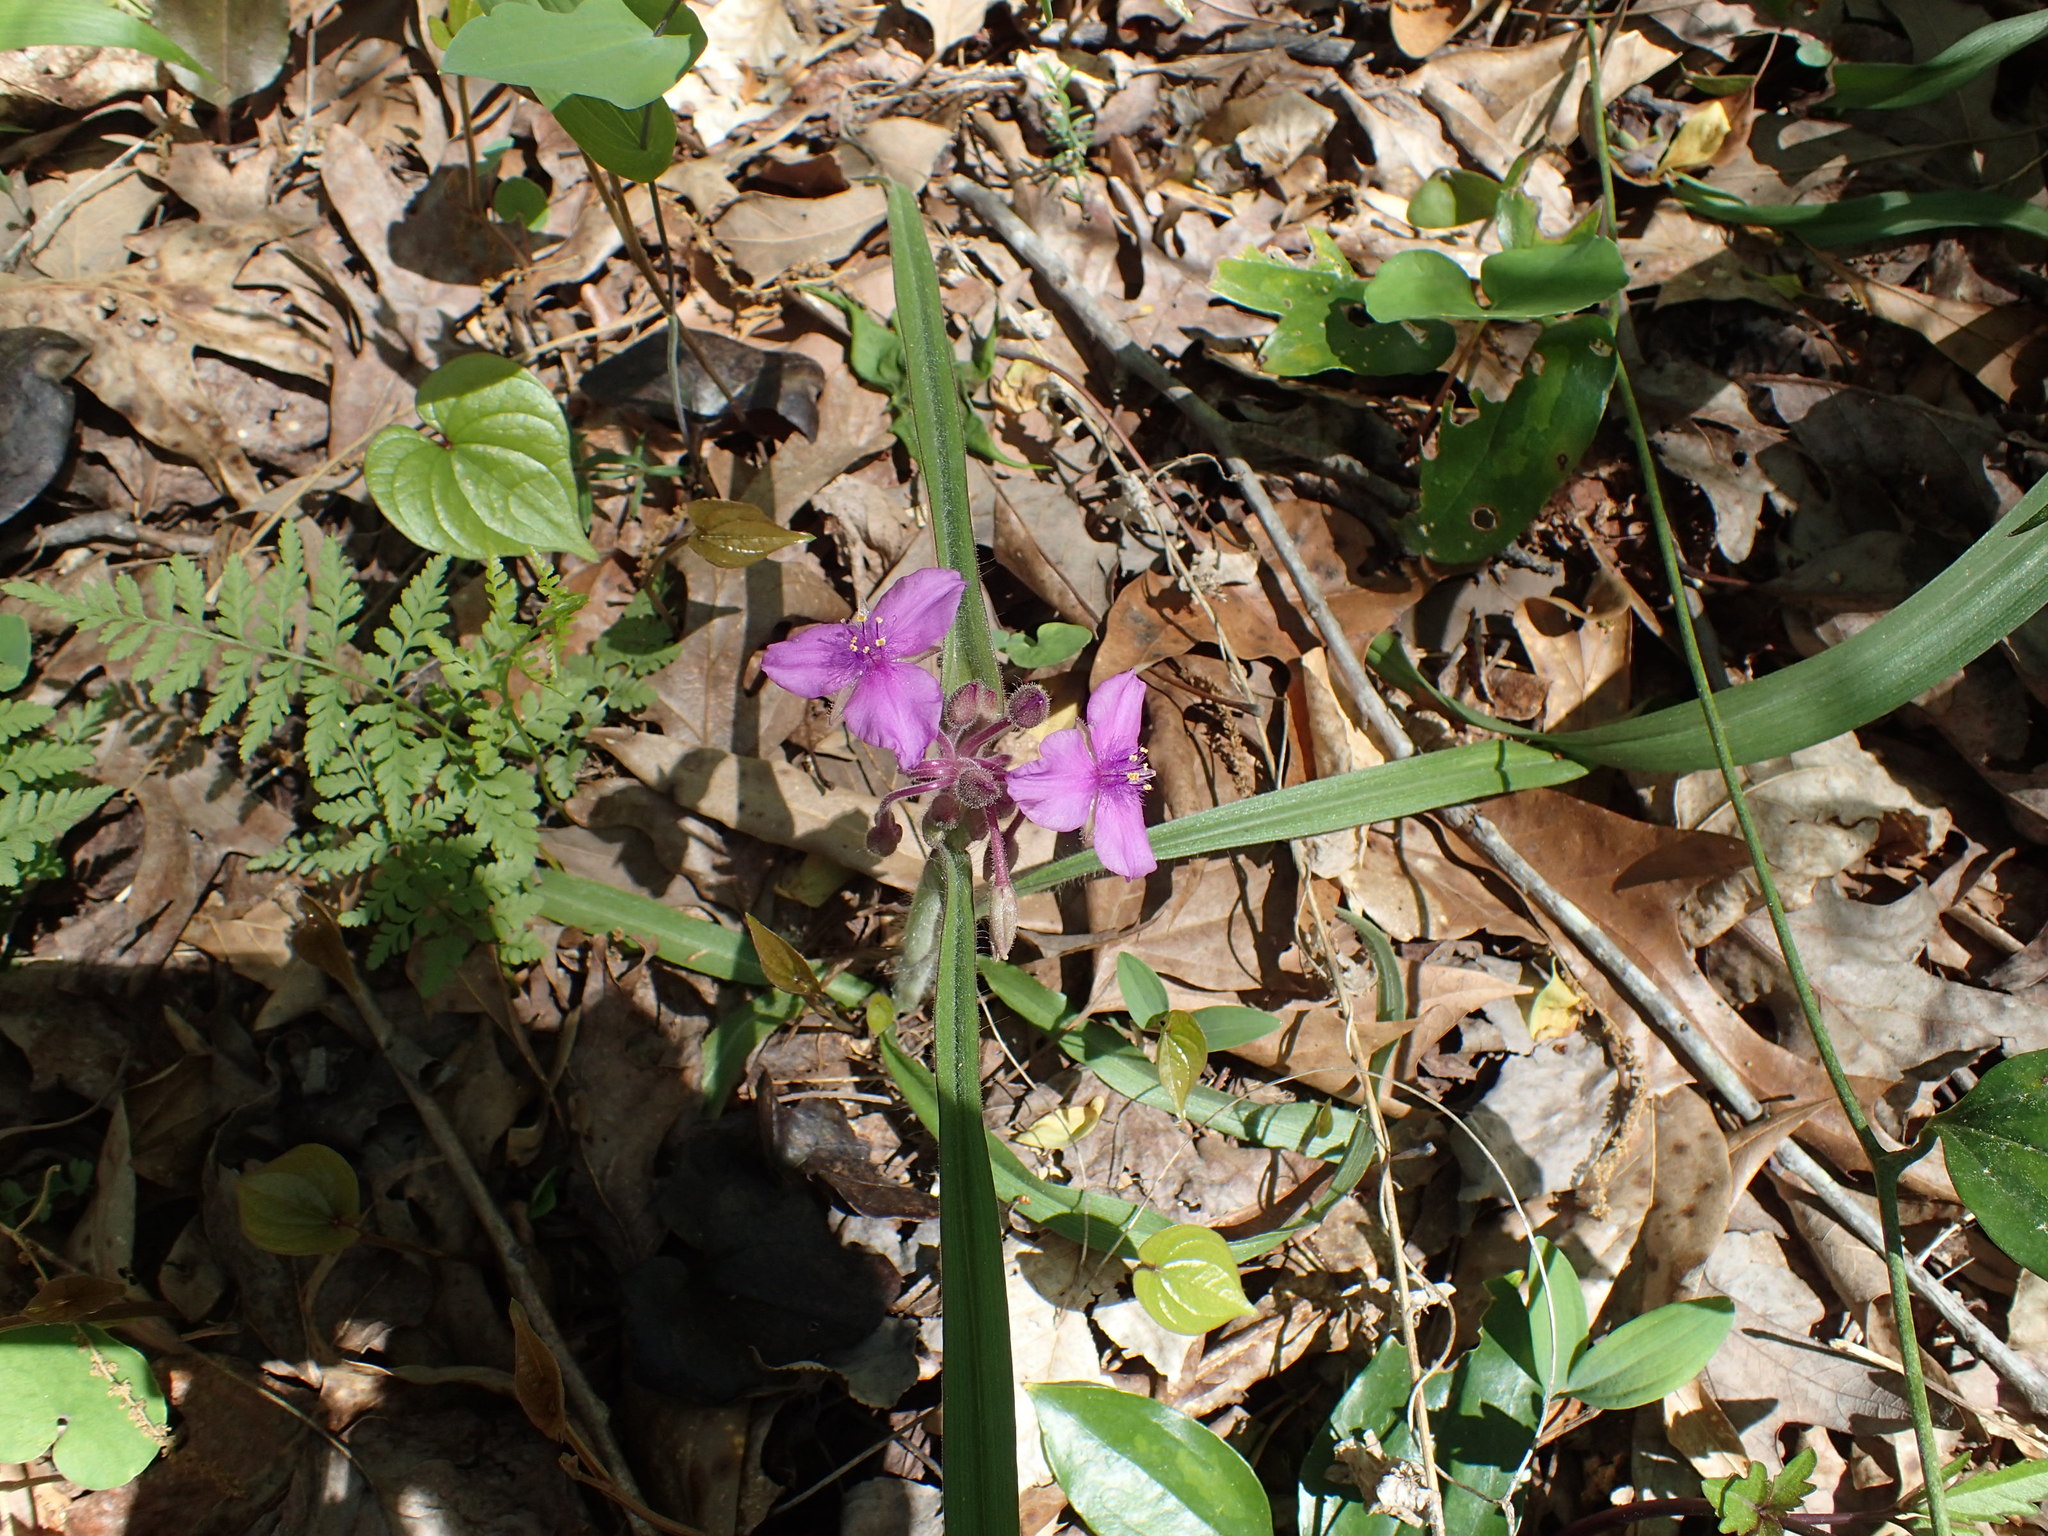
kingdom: Plantae
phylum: Tracheophyta
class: Liliopsida
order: Commelinales
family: Commelinaceae
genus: Tradescantia
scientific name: Tradescantia virginiana
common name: Spiderwort
